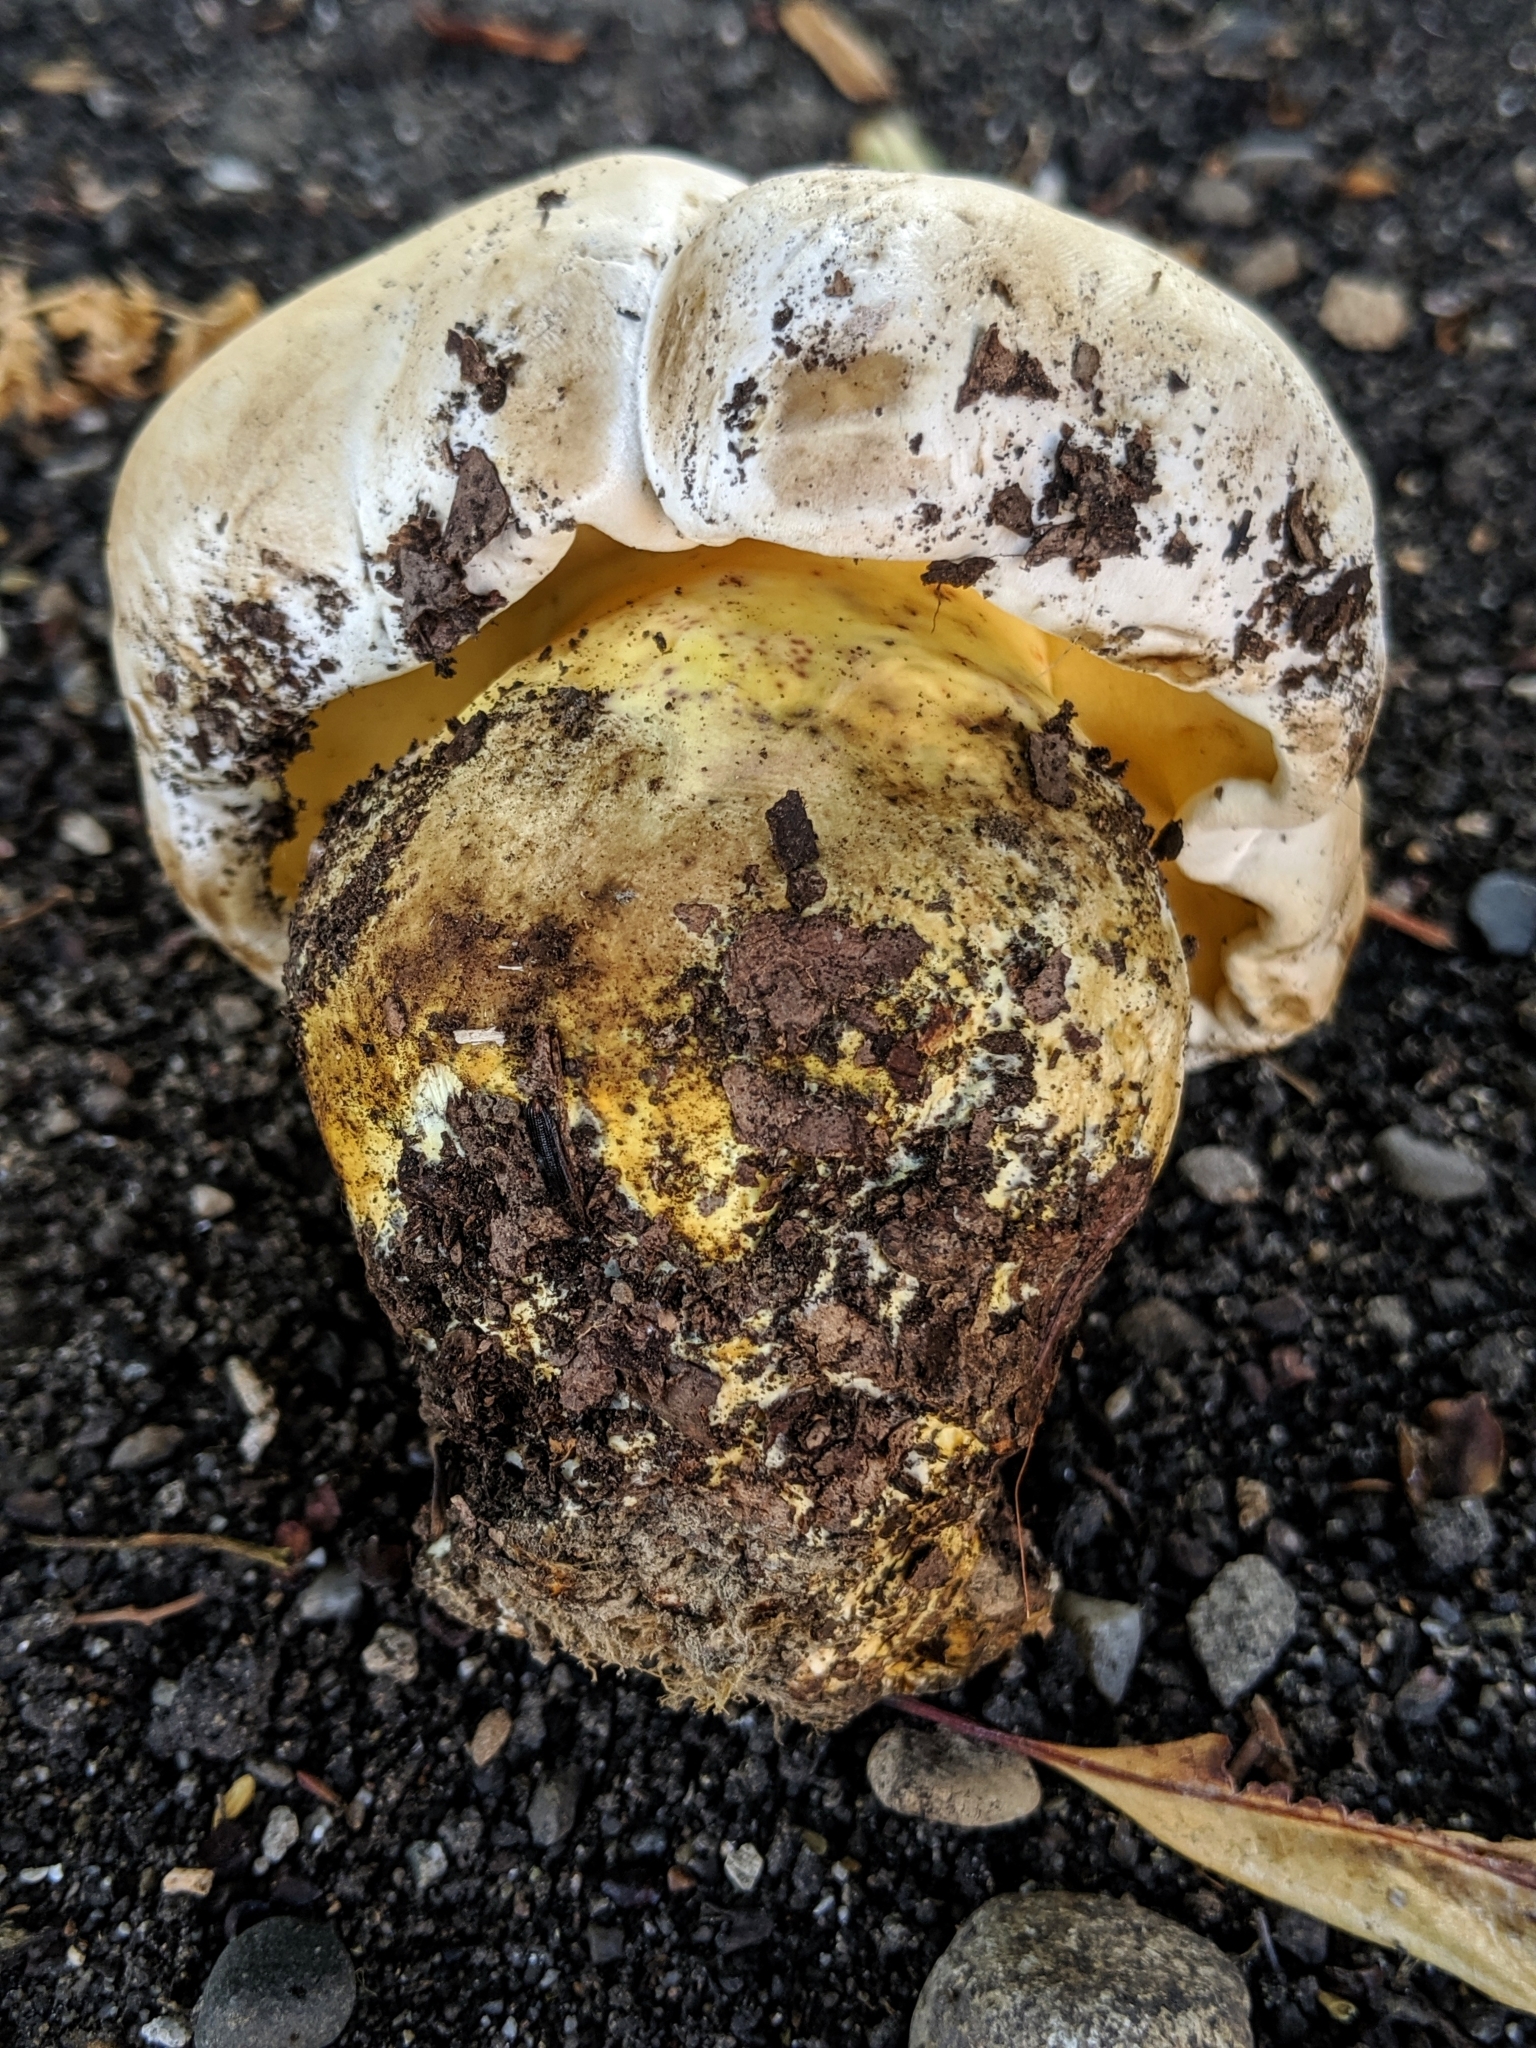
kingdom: Fungi
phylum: Basidiomycota
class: Agaricomycetes
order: Boletales
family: Boletaceae
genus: Caloboletus
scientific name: Caloboletus marshii
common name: Ben's bitter bolete
